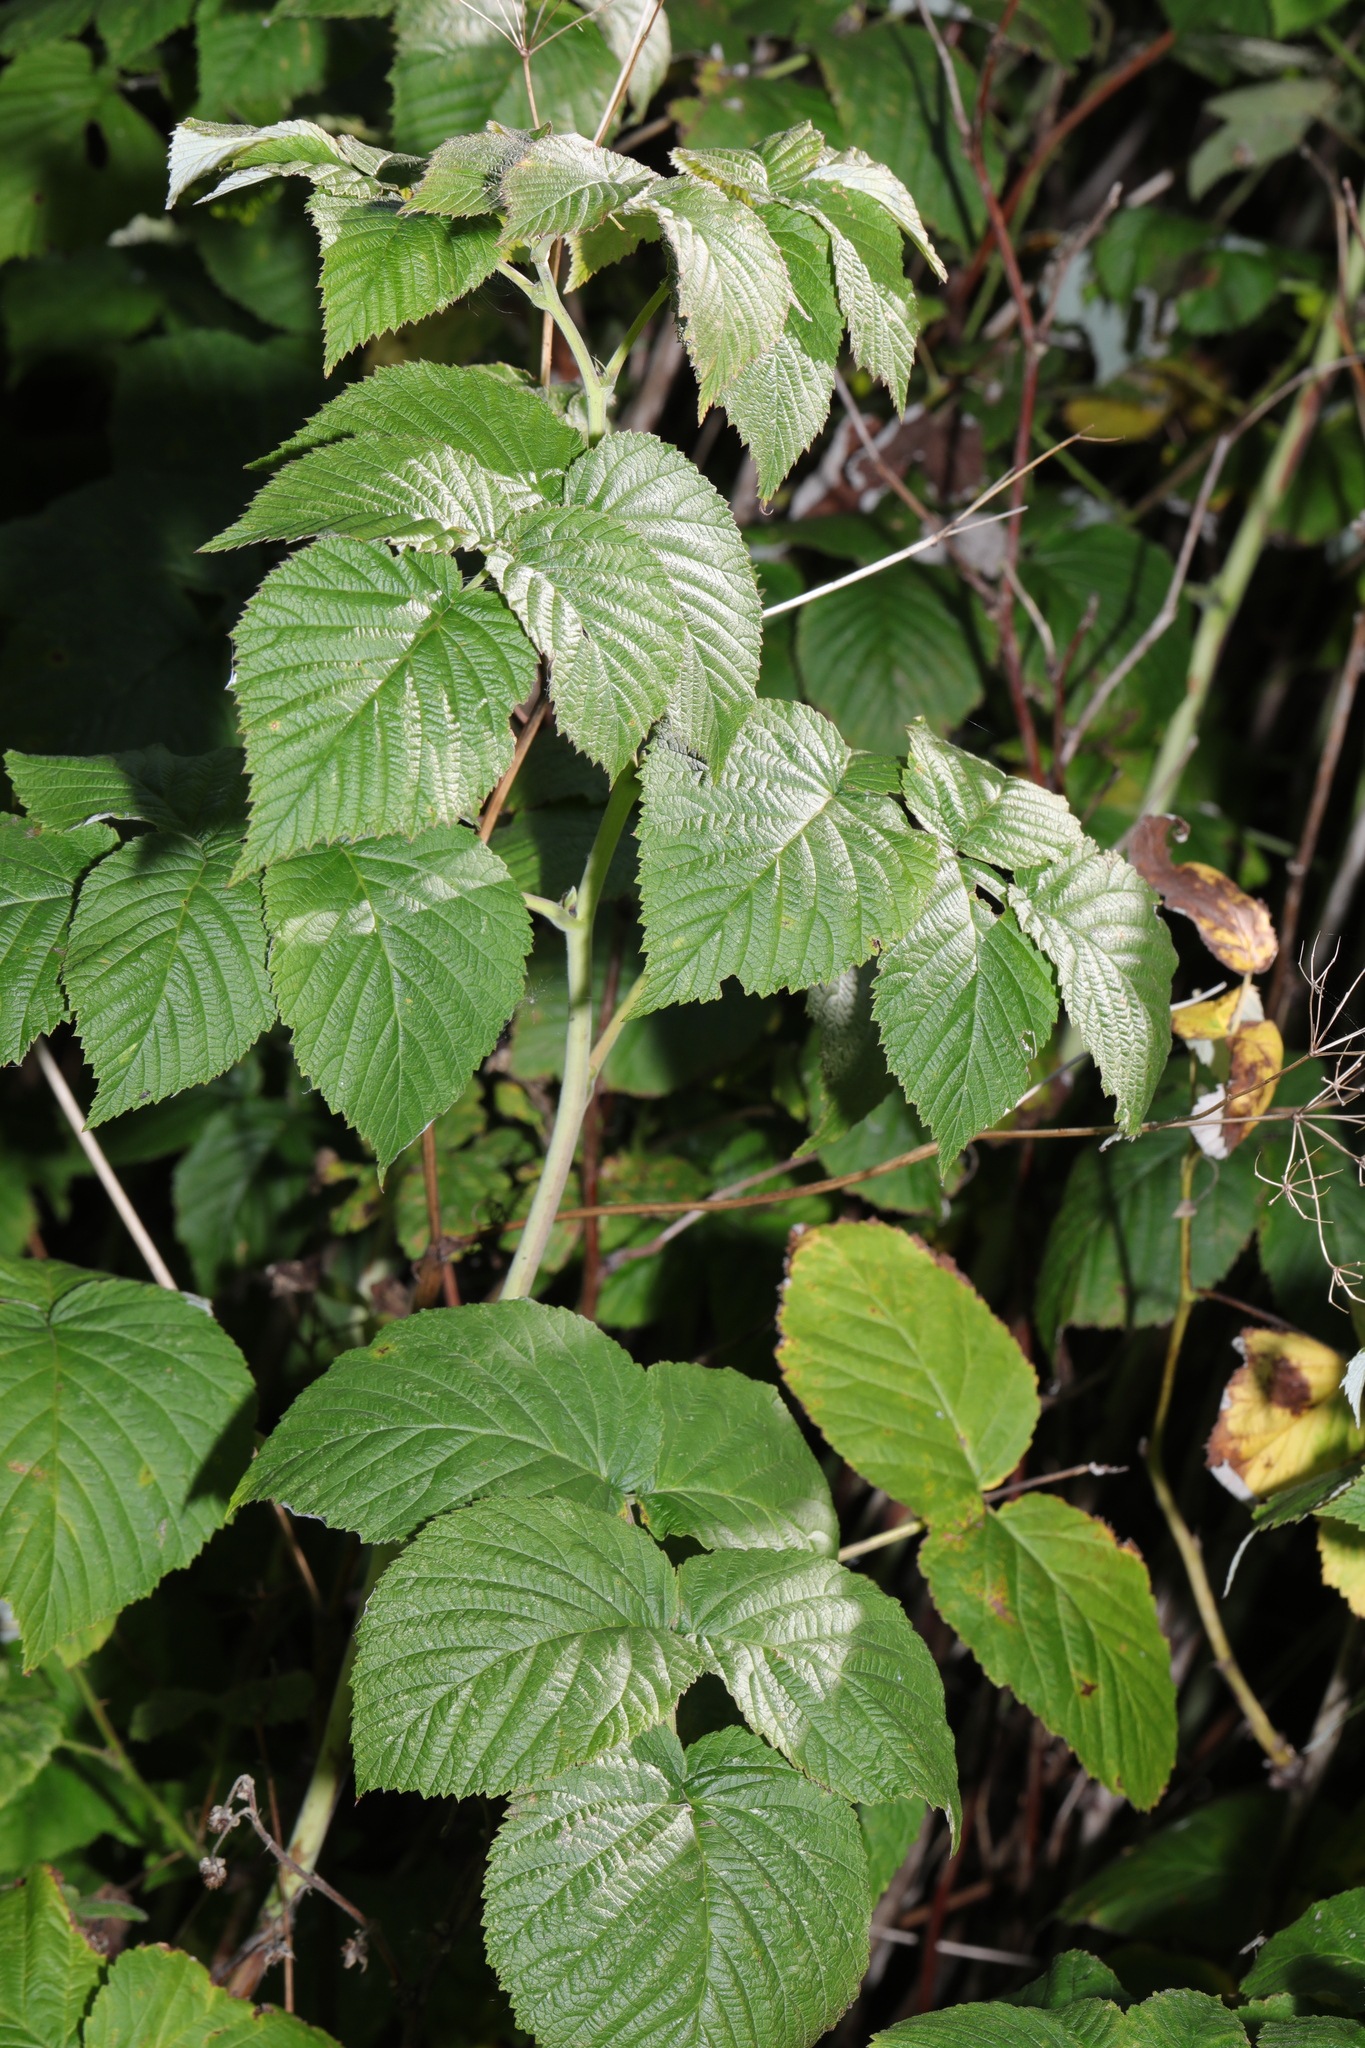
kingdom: Plantae
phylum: Tracheophyta
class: Magnoliopsida
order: Rosales
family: Rosaceae
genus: Rubus
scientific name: Rubus idaeus
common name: Raspberry
